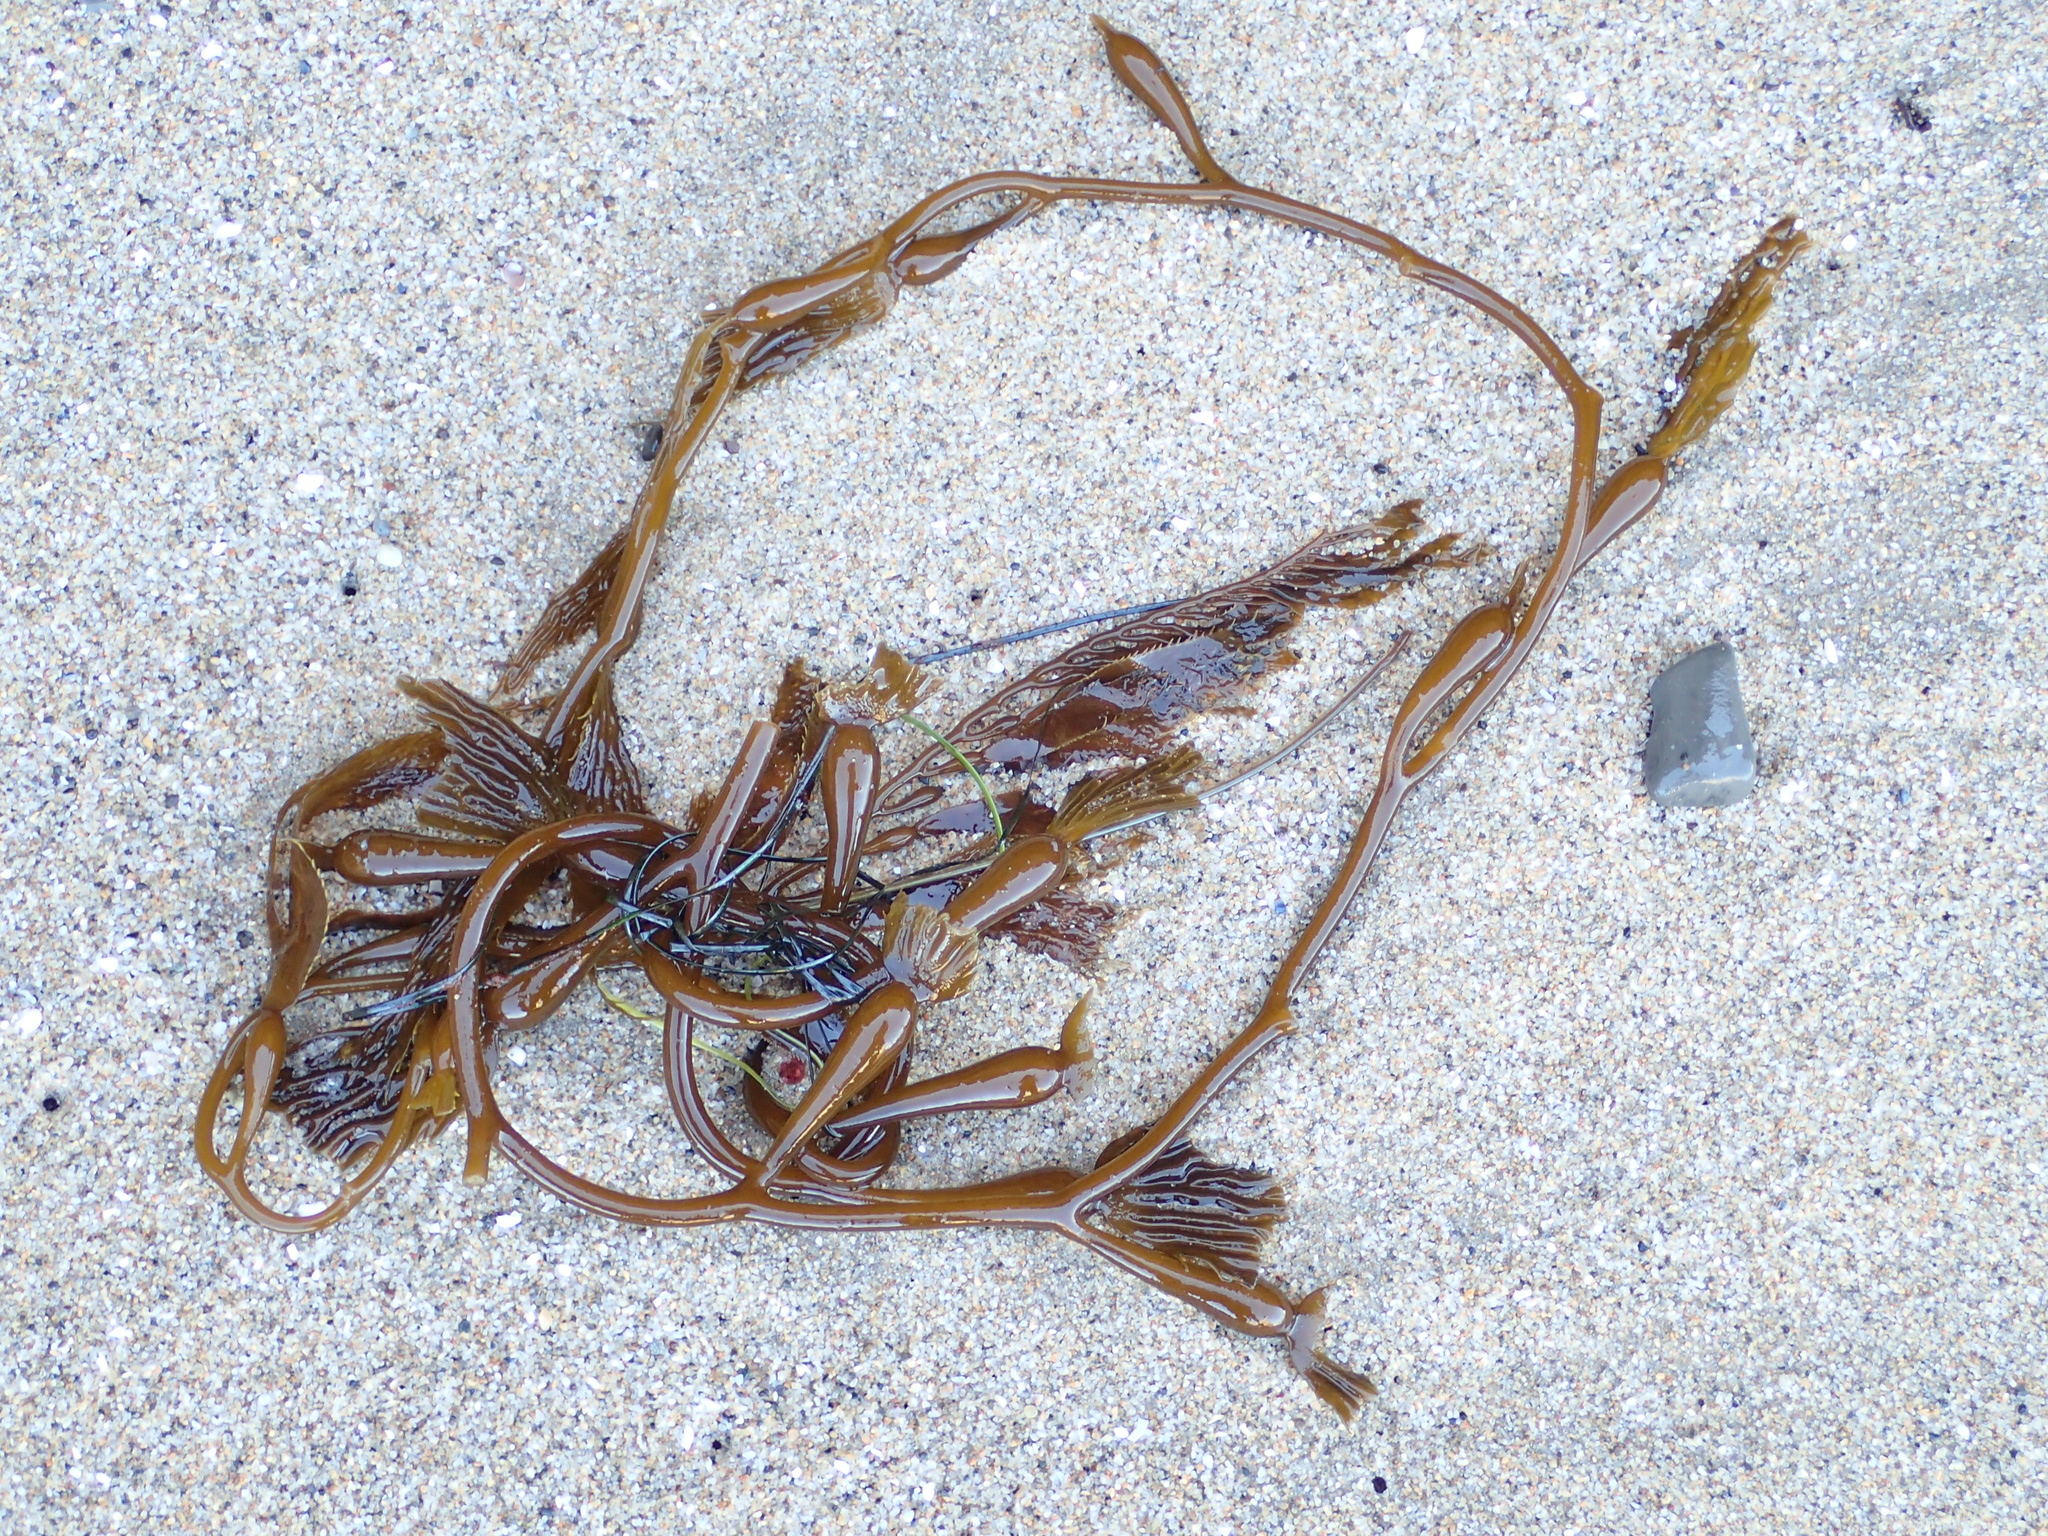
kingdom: Chromista
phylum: Ochrophyta
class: Phaeophyceae
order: Laminariales
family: Laminariaceae
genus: Macrocystis
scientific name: Macrocystis pyrifera
